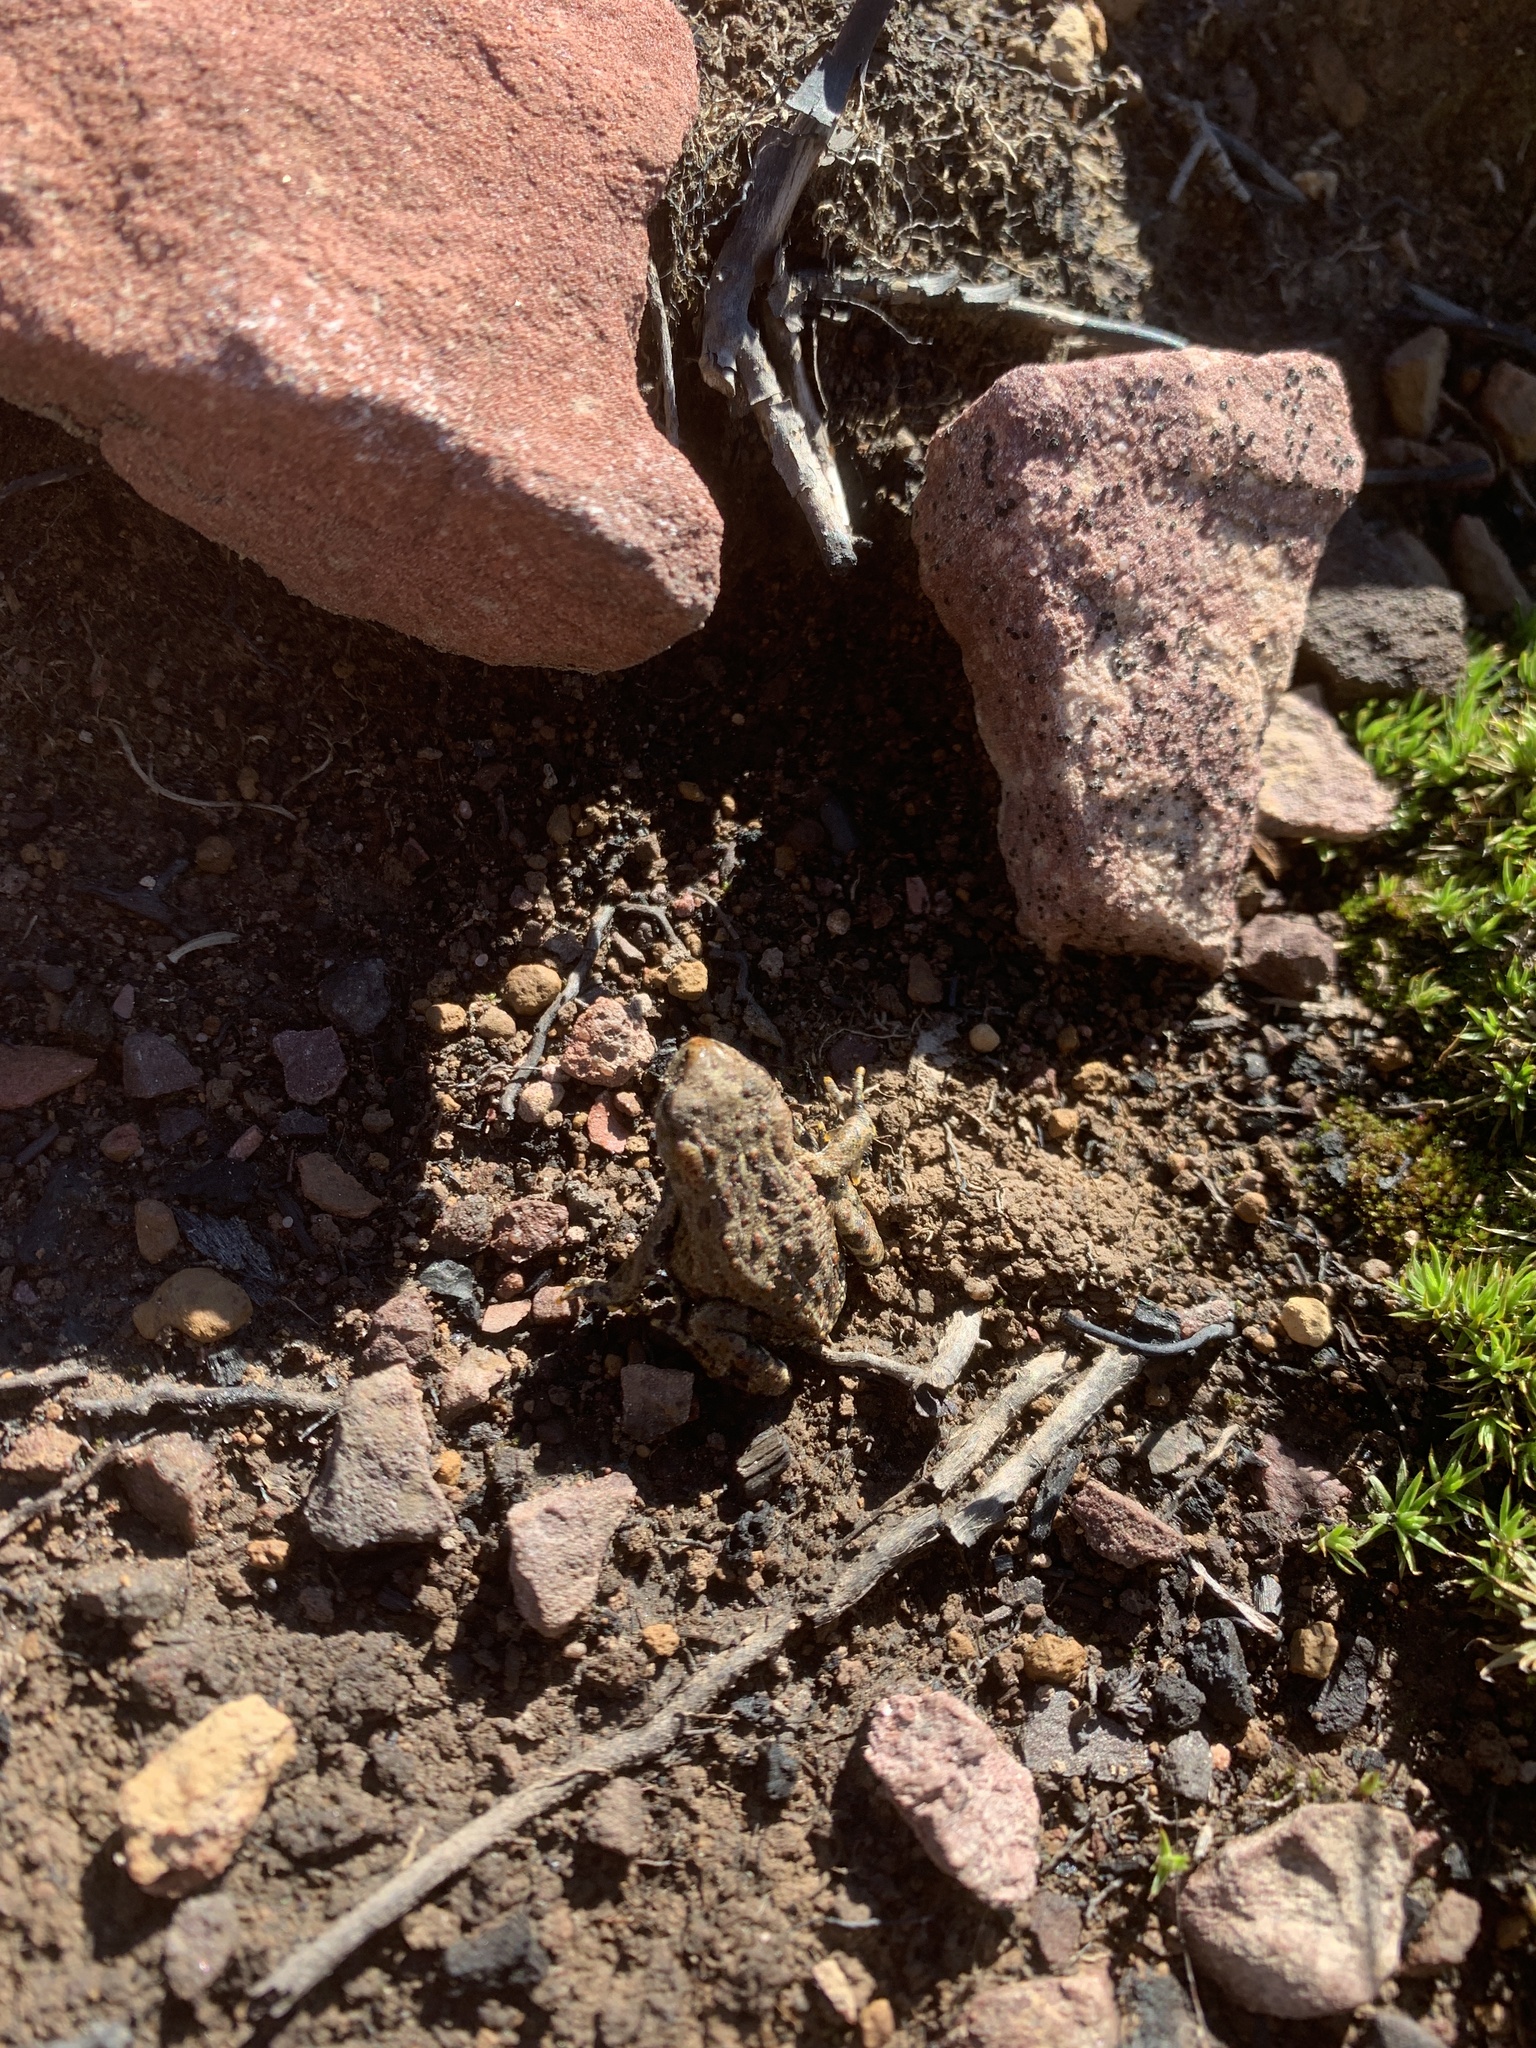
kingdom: Animalia
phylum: Chordata
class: Amphibia
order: Anura
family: Bufonidae
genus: Anaxyrus
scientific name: Anaxyrus boreas
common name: Western toad
